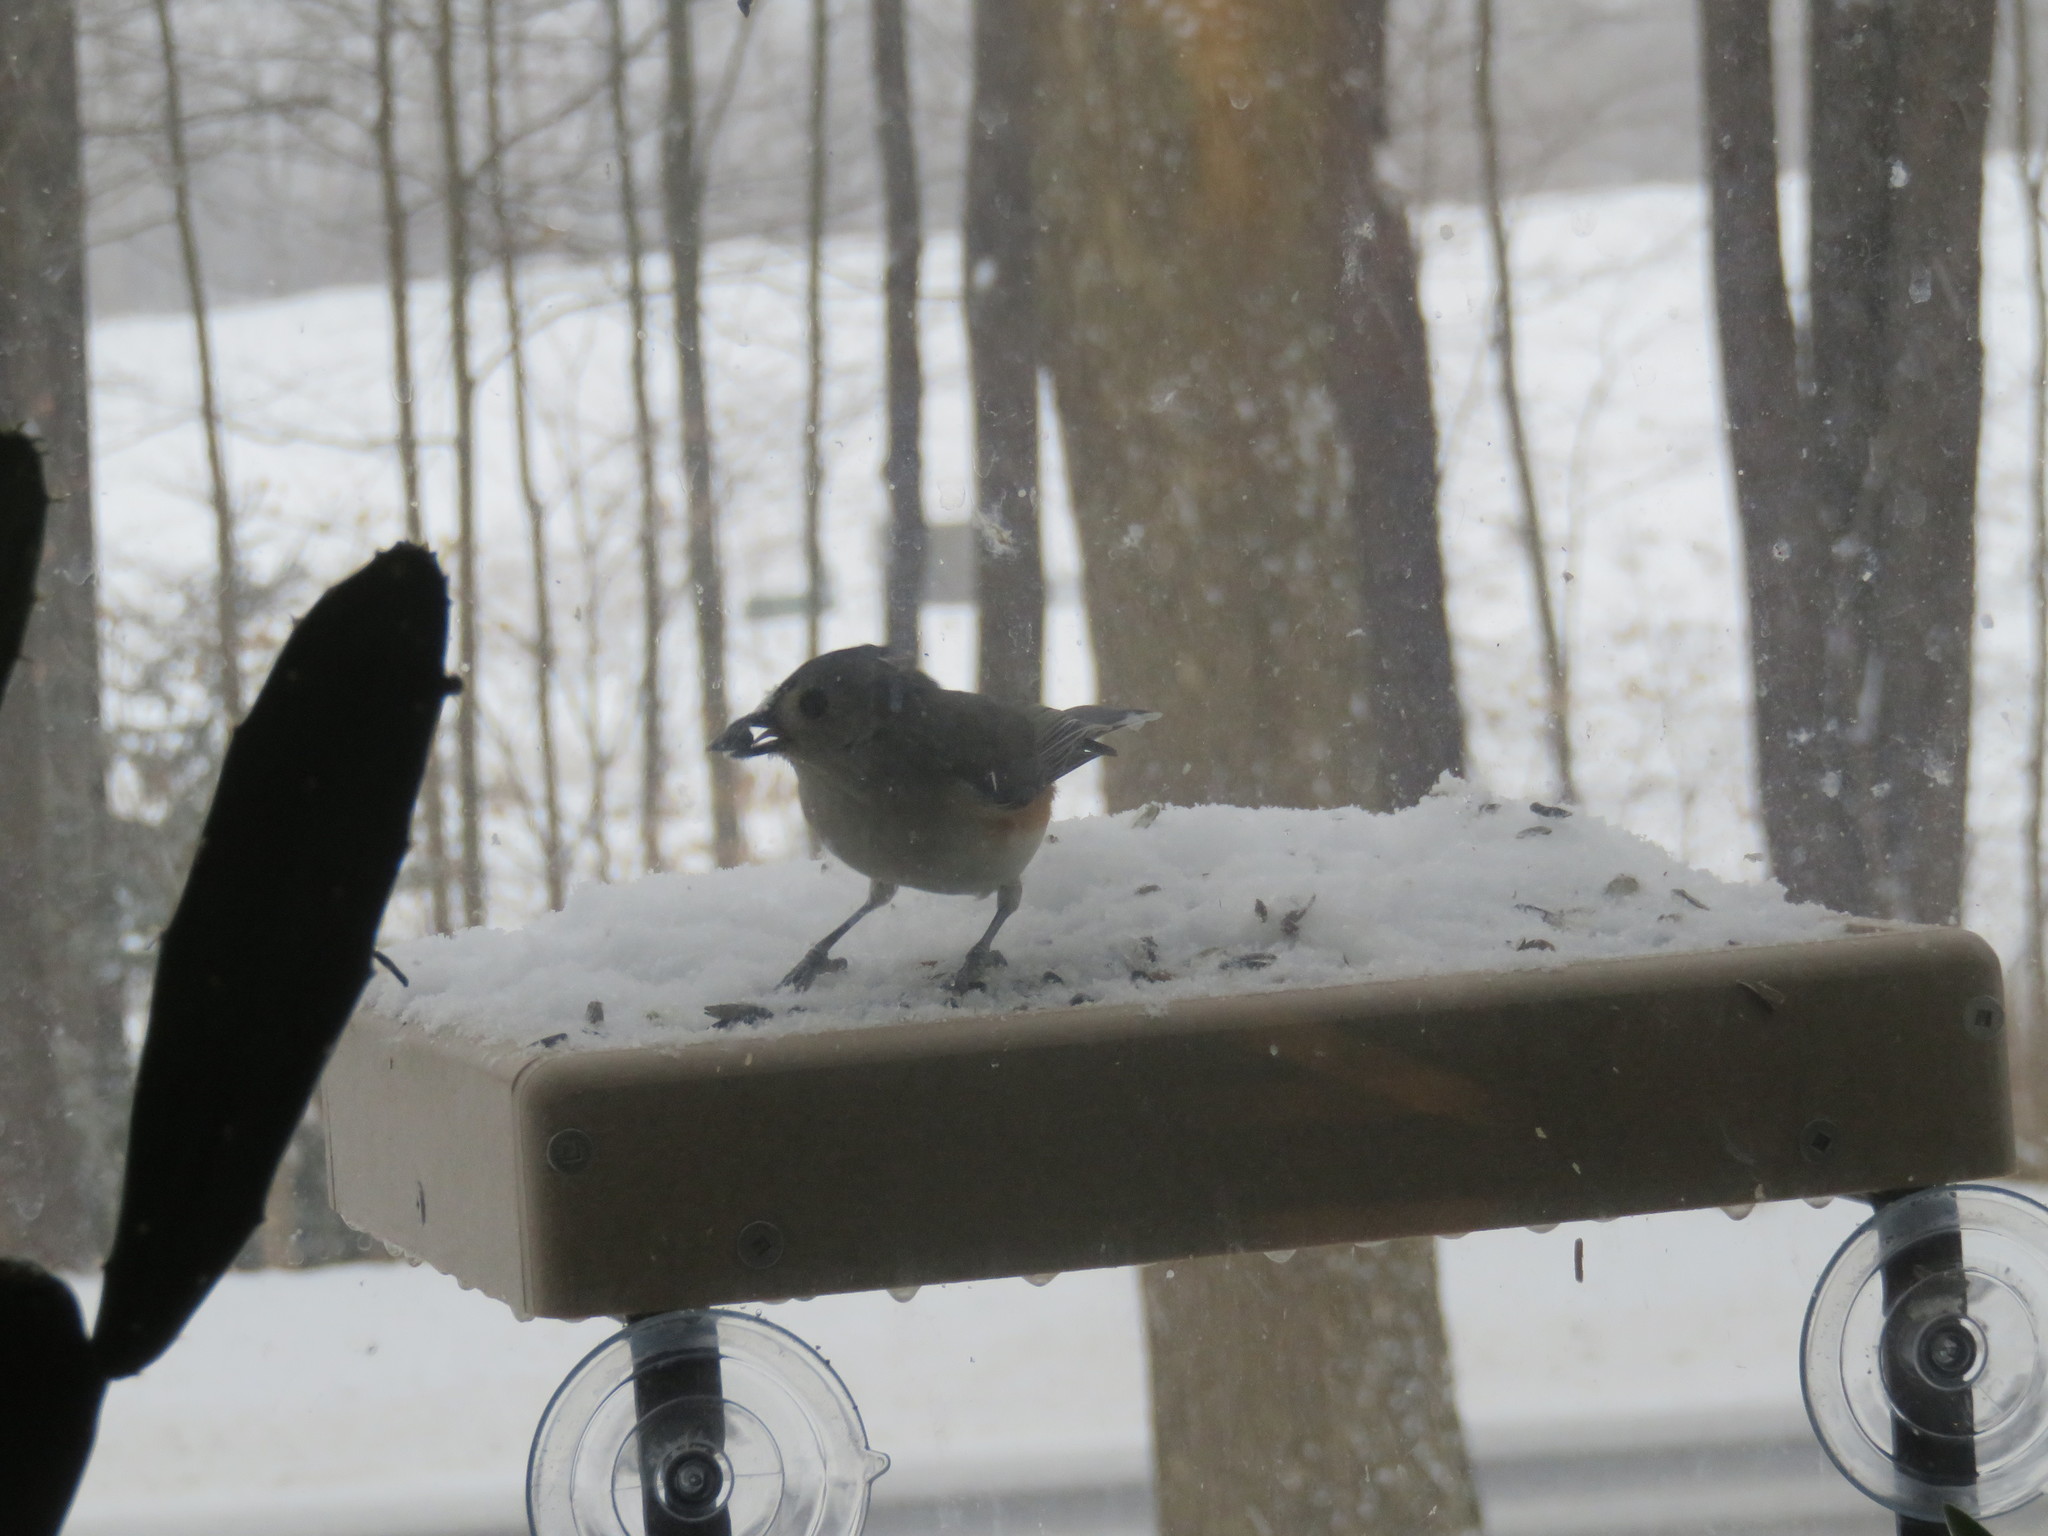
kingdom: Animalia
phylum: Chordata
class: Aves
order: Passeriformes
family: Paridae
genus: Baeolophus
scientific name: Baeolophus bicolor
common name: Tufted titmouse
